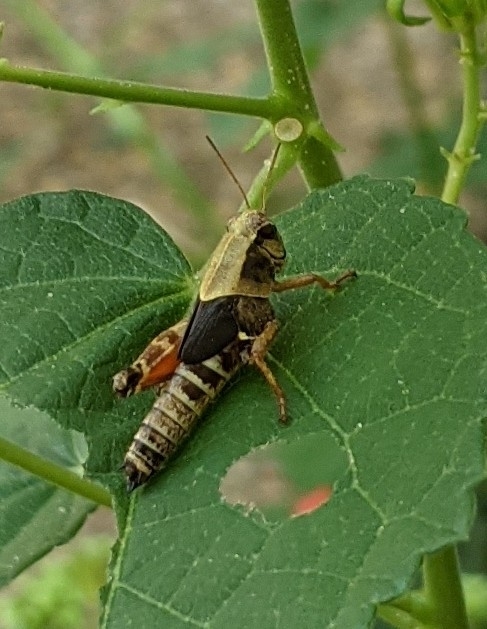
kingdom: Animalia
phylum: Arthropoda
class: Insecta
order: Orthoptera
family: Acrididae
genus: Aidemona
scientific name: Aidemona azteca
